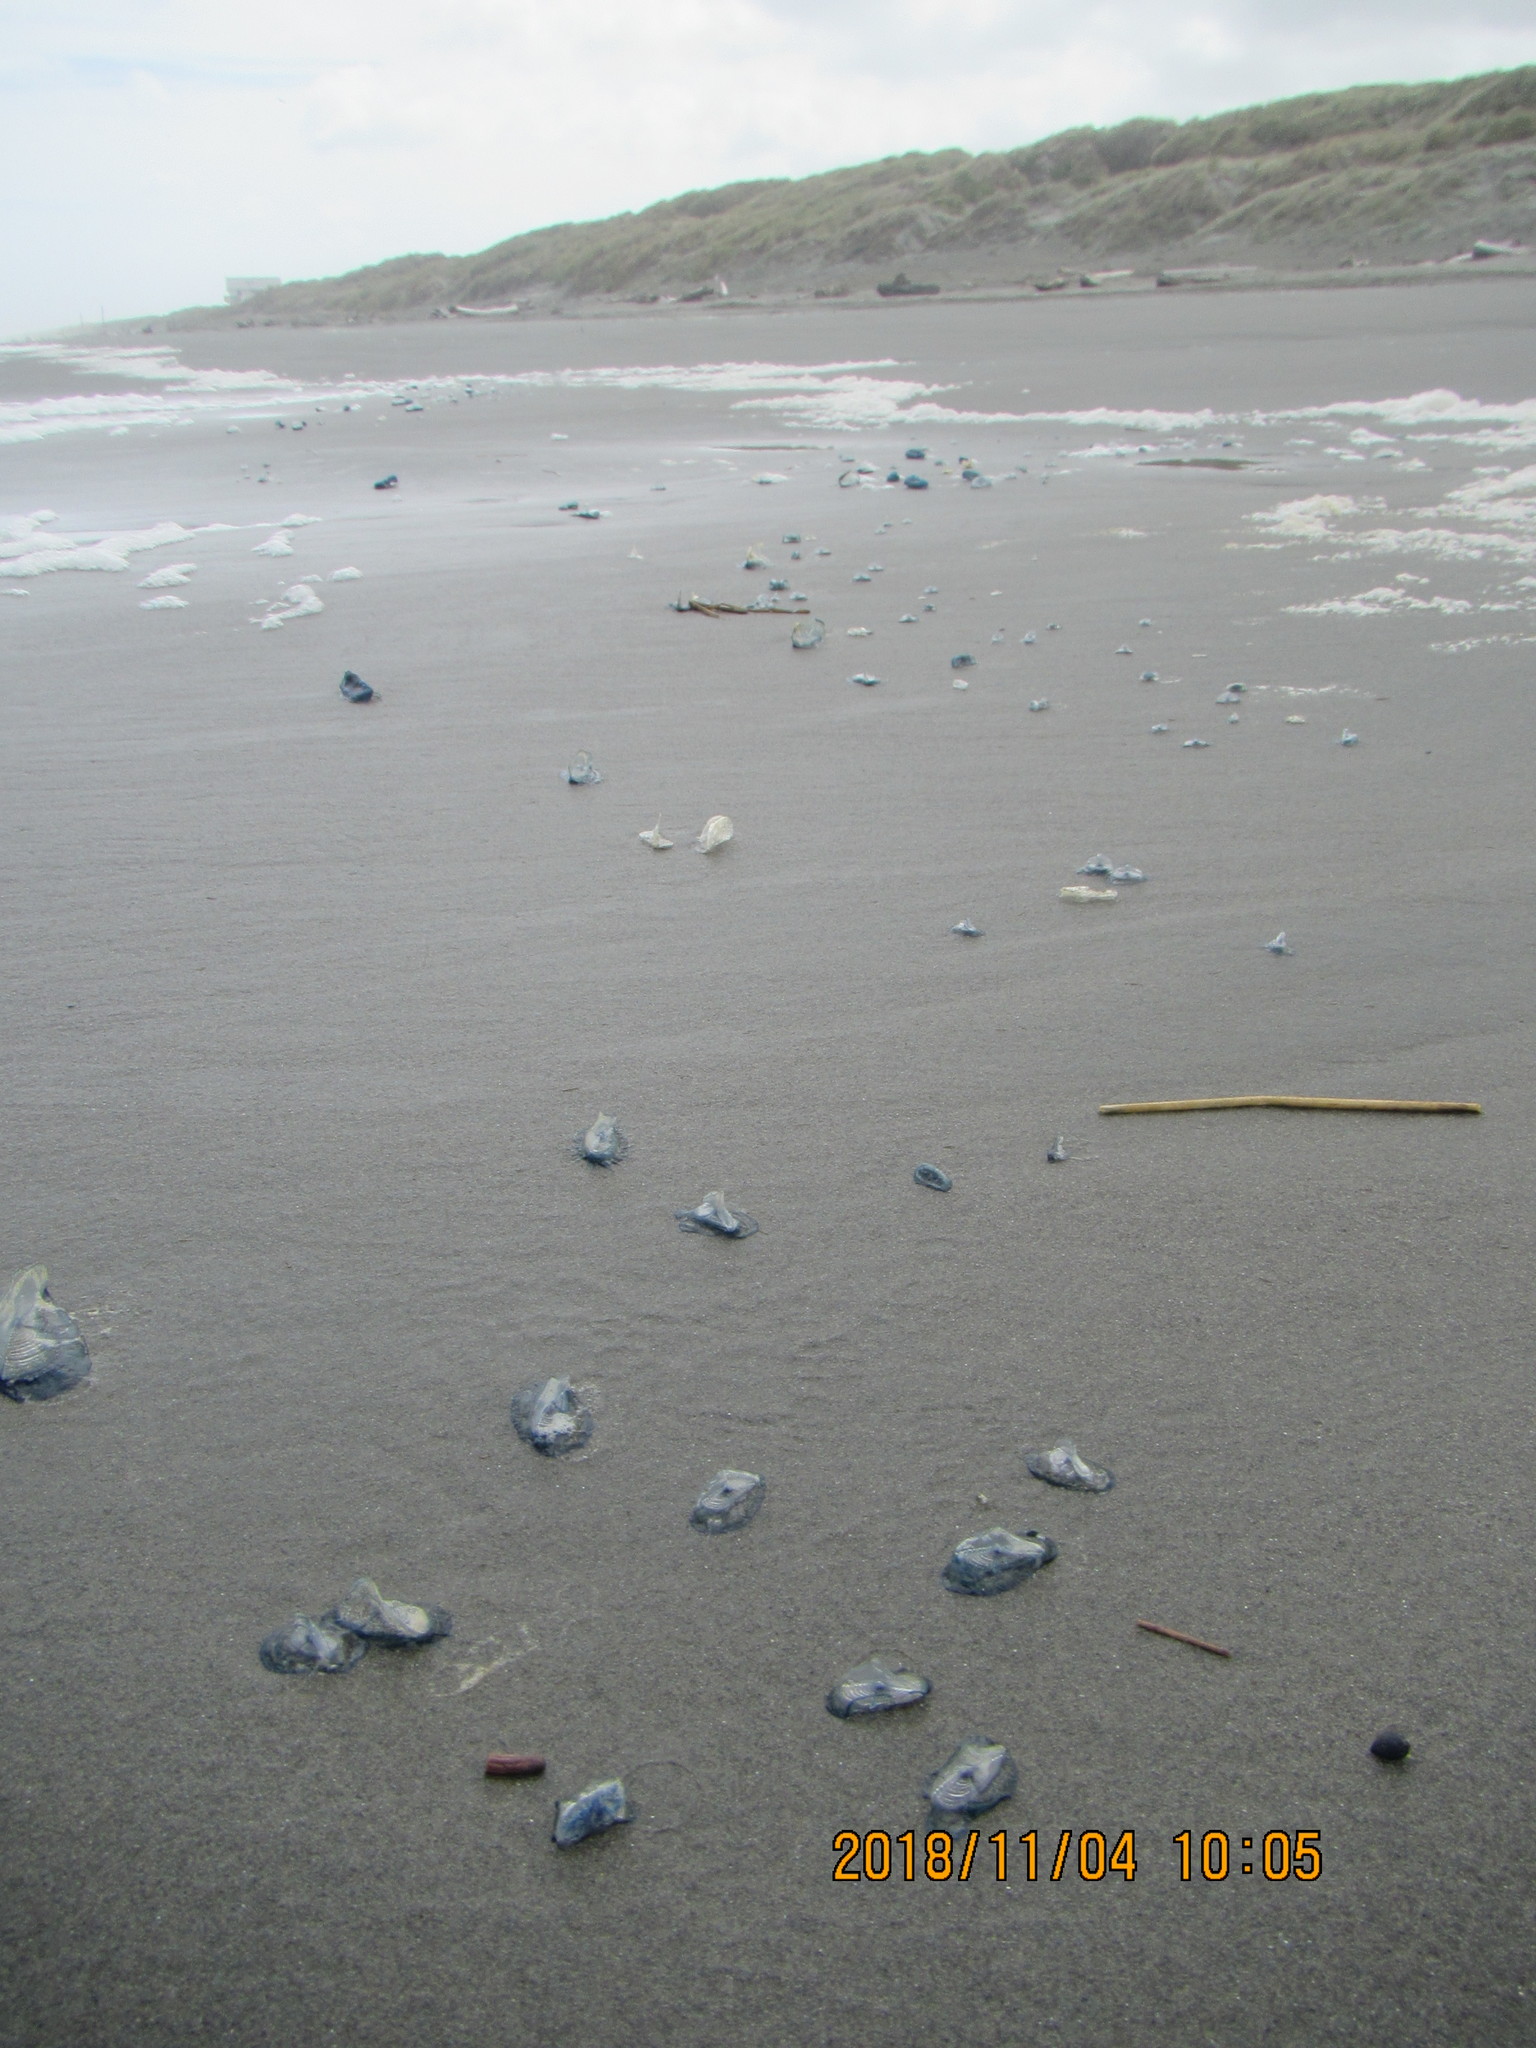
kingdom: Animalia
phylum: Cnidaria
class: Hydrozoa
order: Anthoathecata
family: Porpitidae
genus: Velella
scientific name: Velella velella
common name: By-the-wind-sailor
